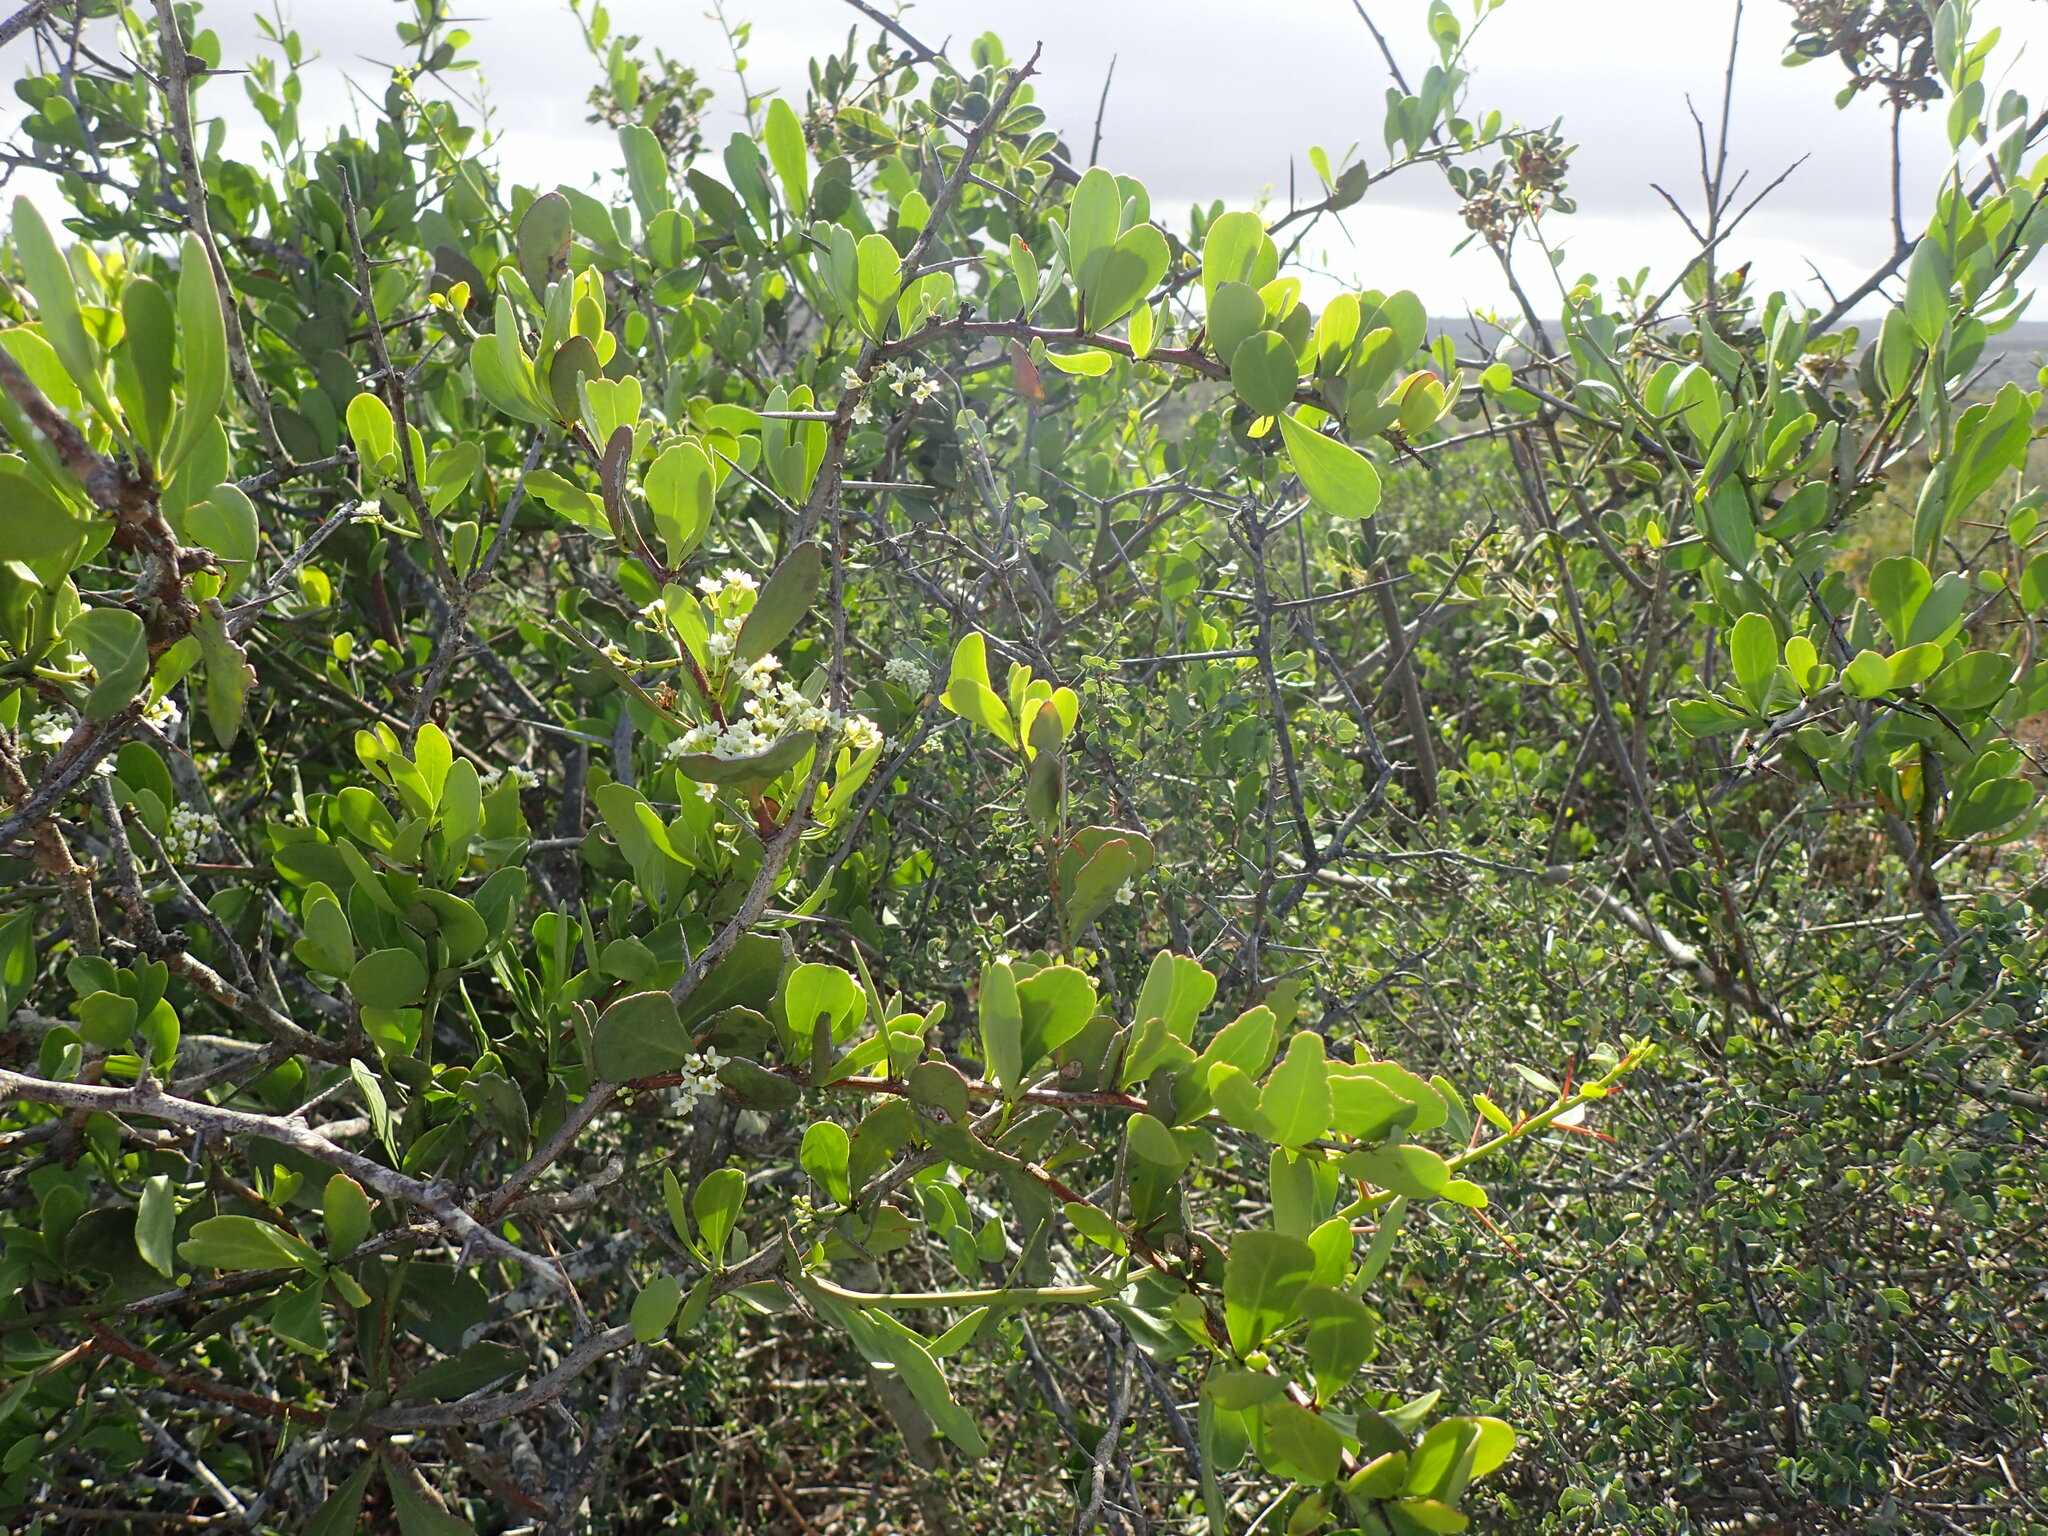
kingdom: Plantae
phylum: Tracheophyta
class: Magnoliopsida
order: Celastrales
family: Celastraceae
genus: Gymnosporia
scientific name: Gymnosporia buxifolia
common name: Common spike-thorn
